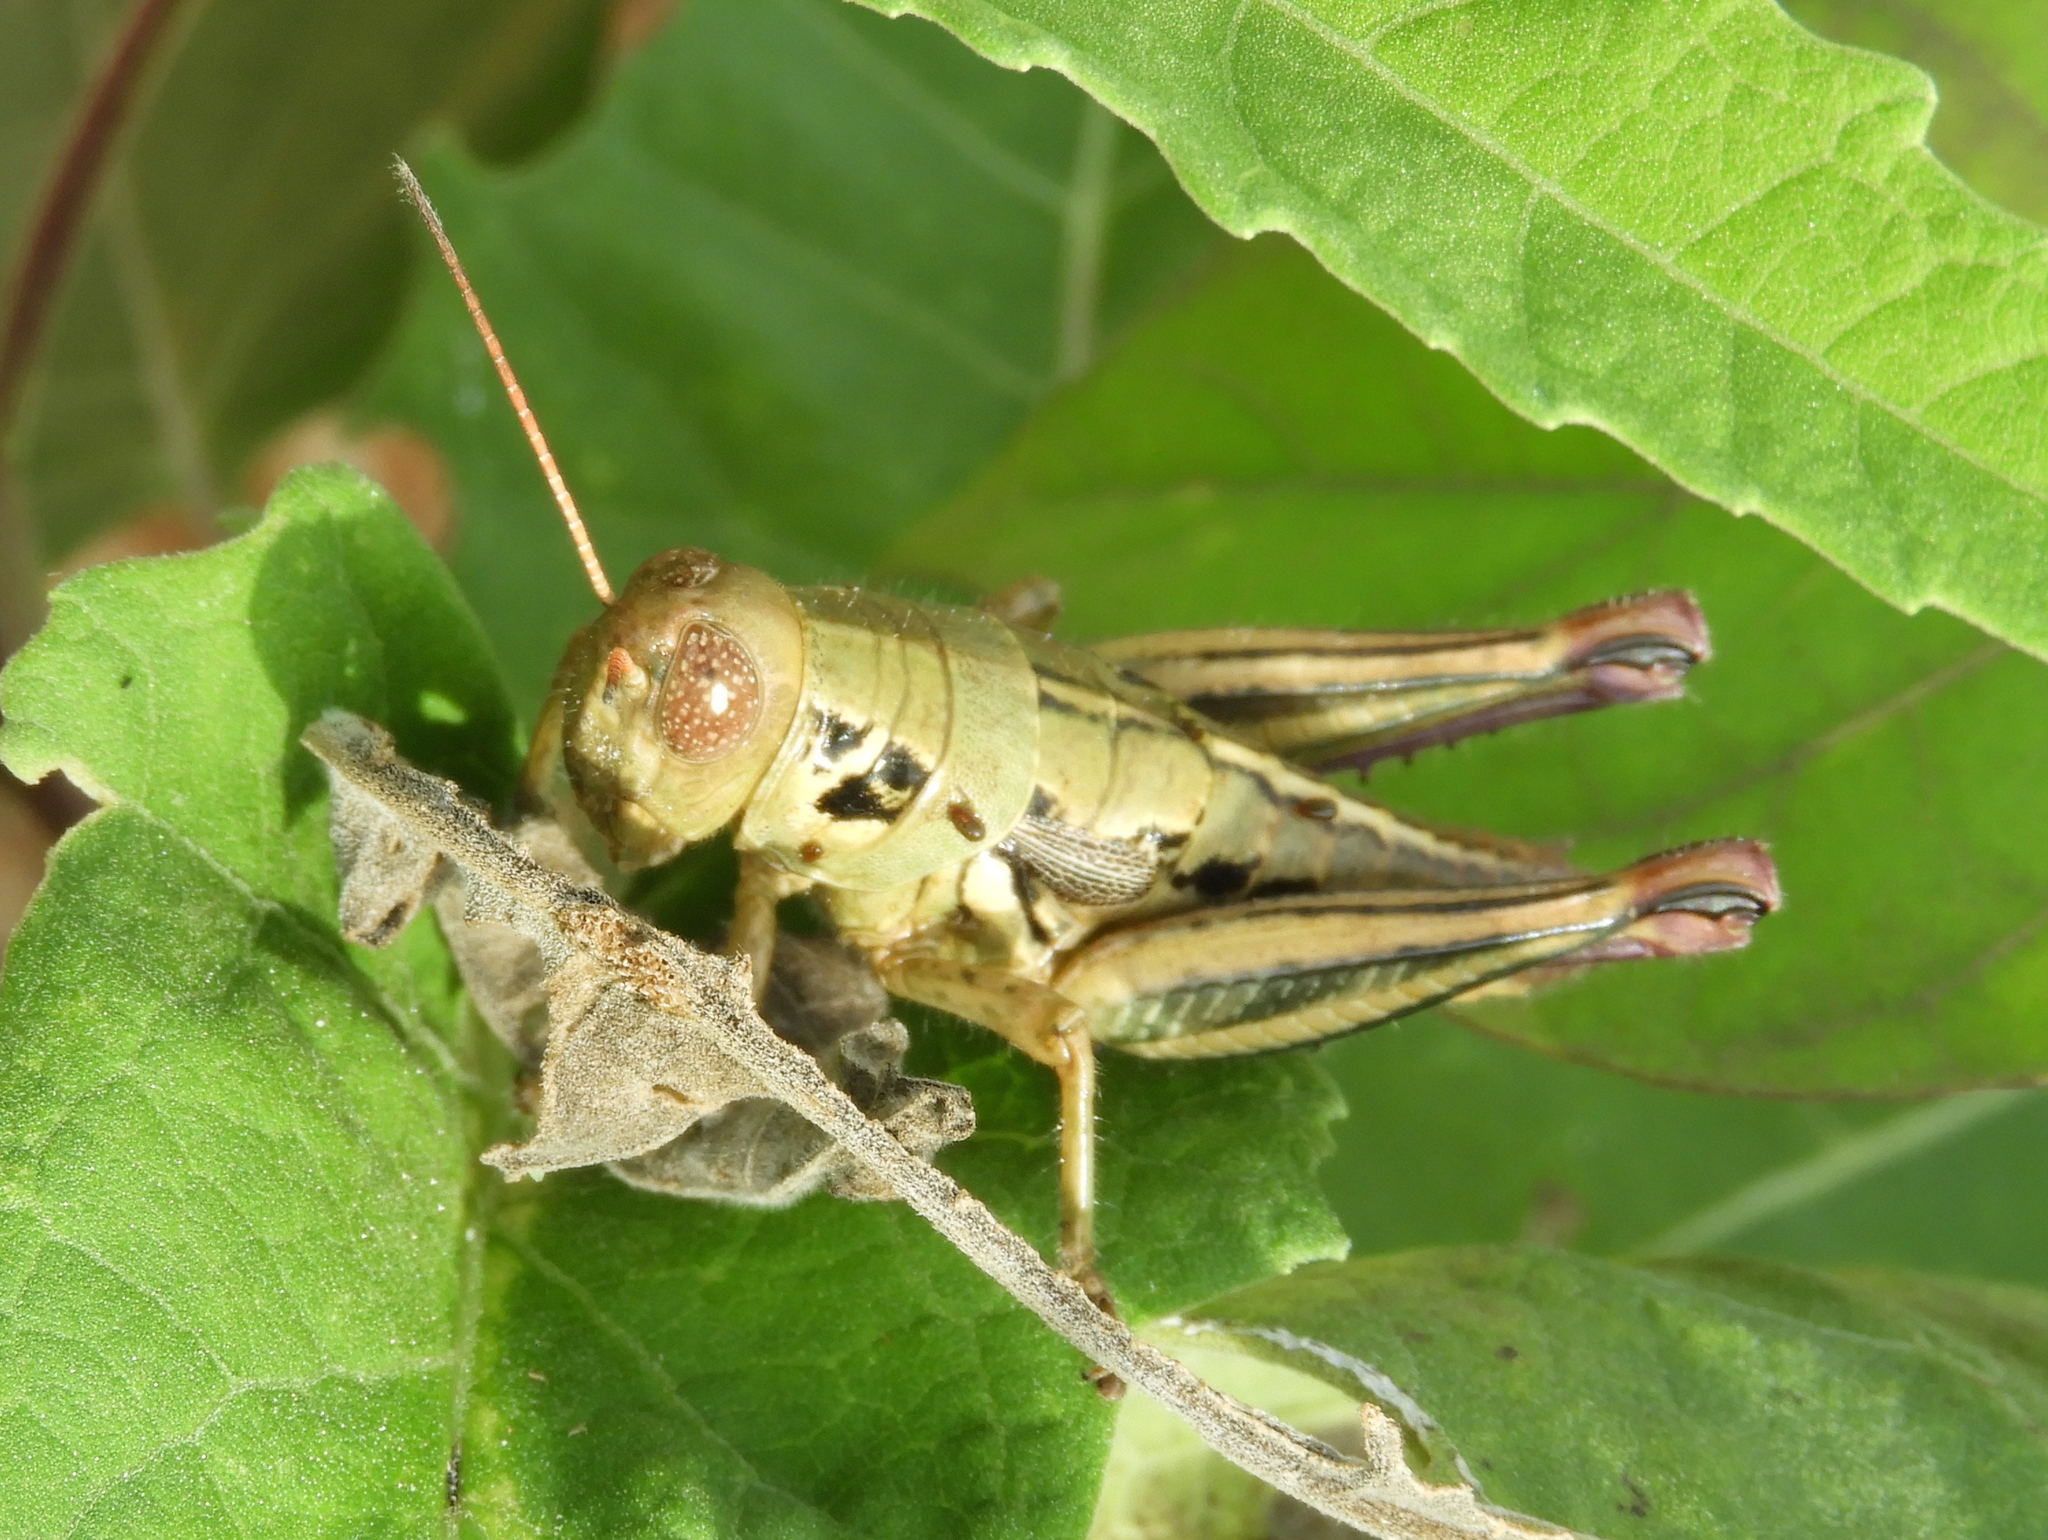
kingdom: Animalia
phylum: Arthropoda
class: Insecta
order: Orthoptera
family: Acrididae
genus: Barytettix
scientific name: Barytettix
